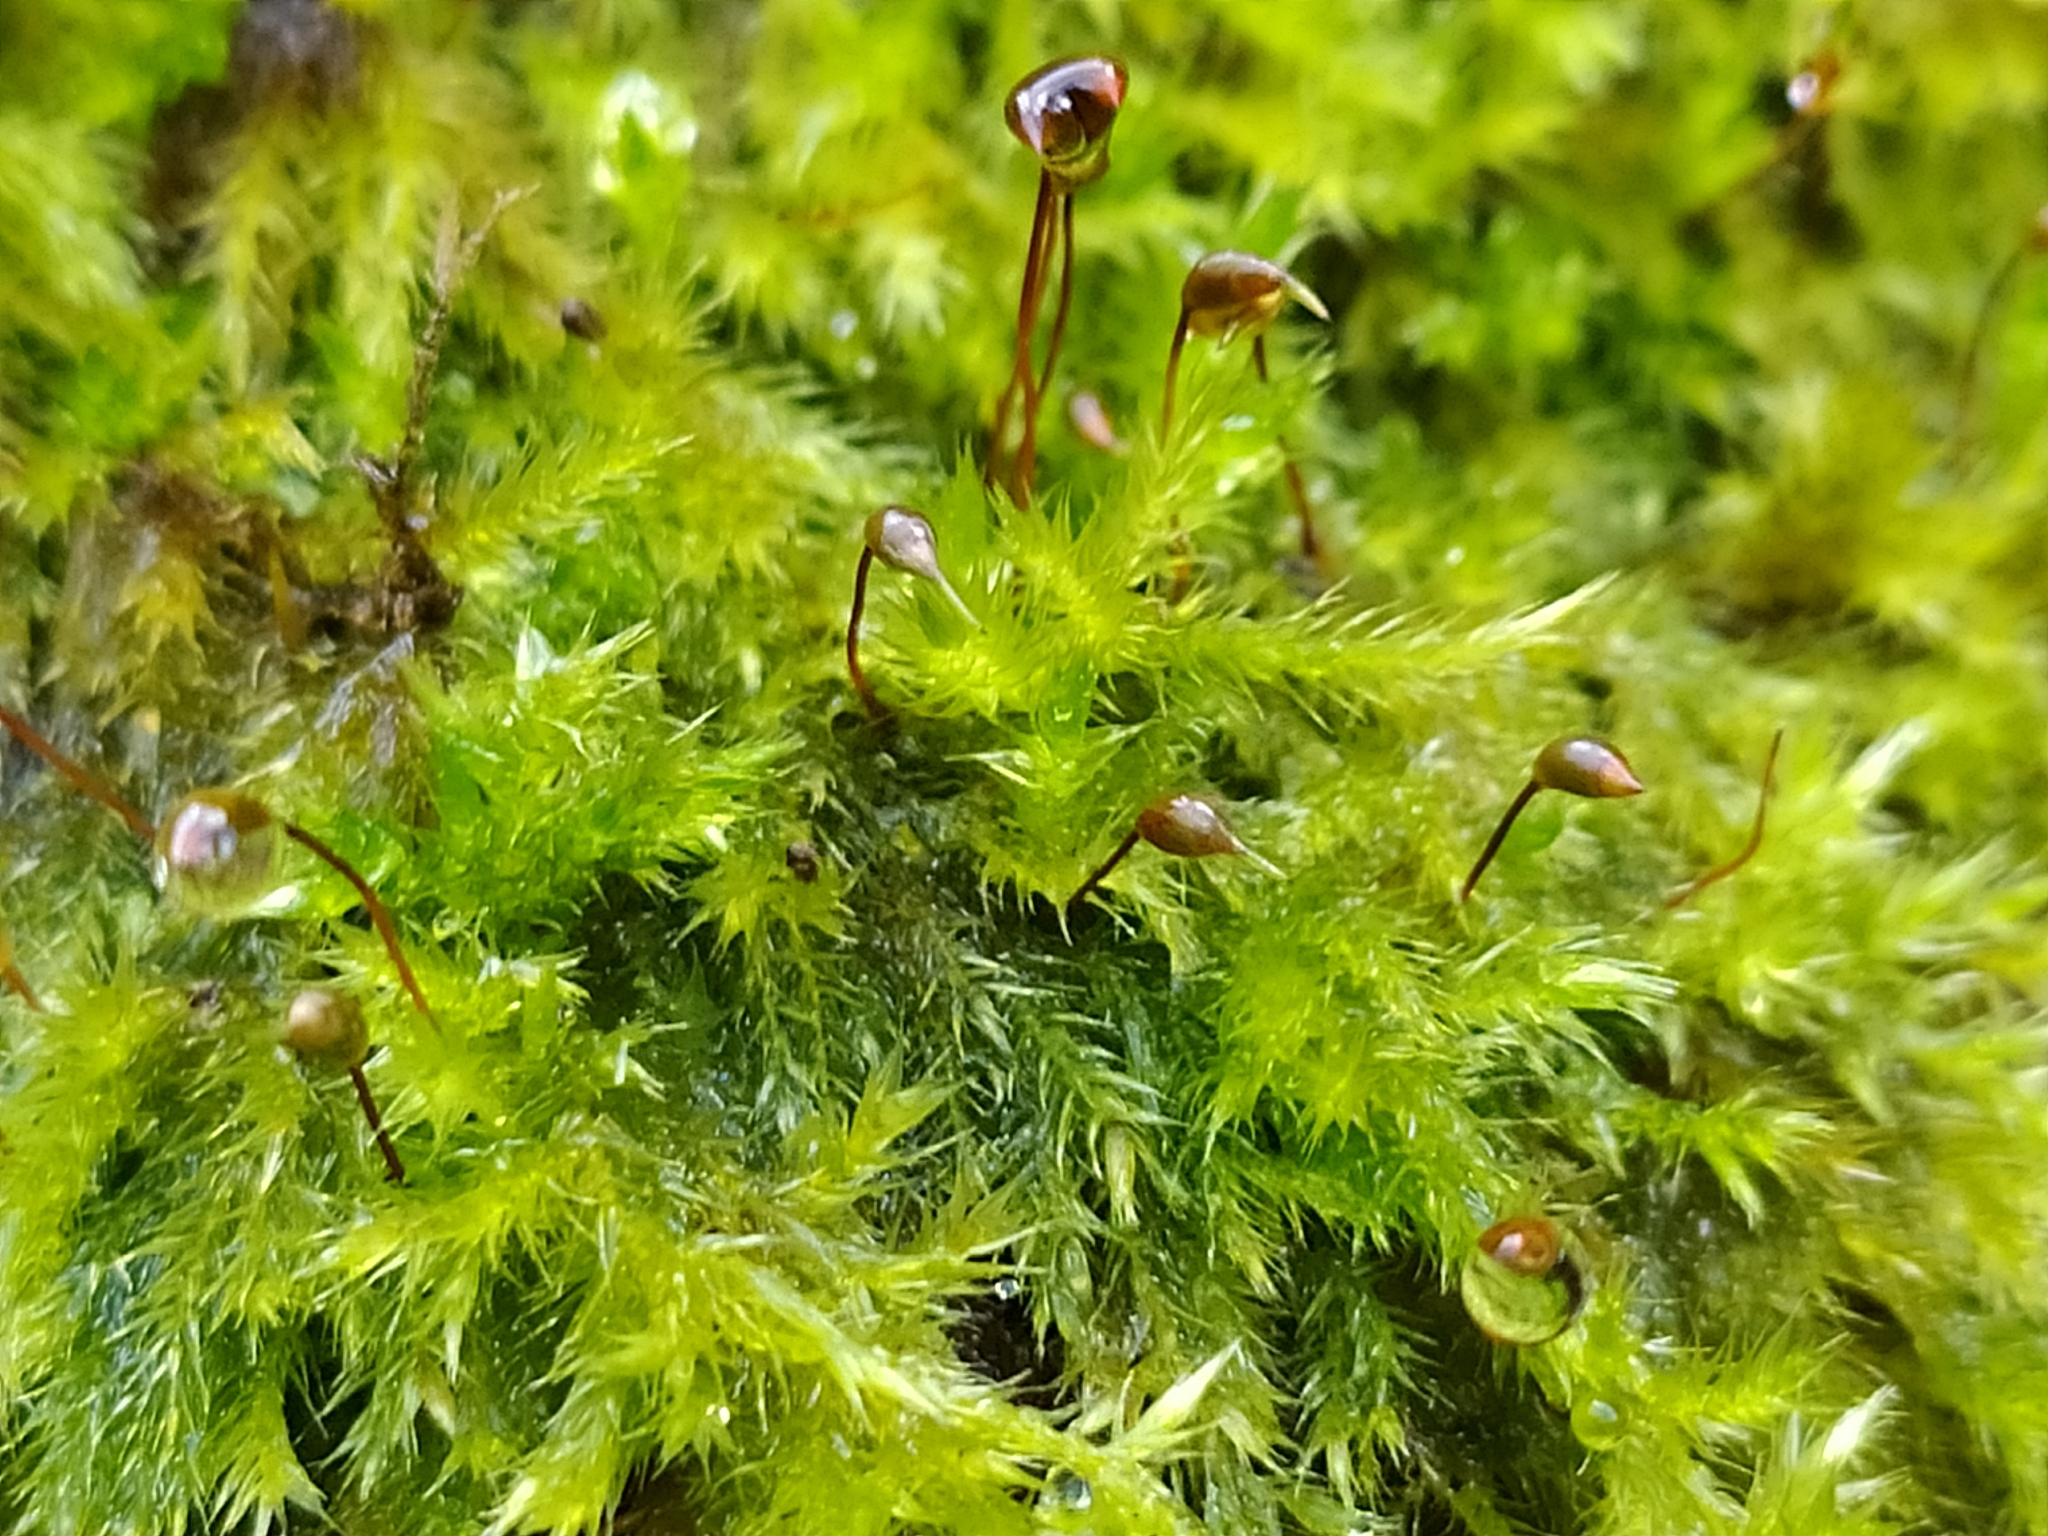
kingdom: Plantae
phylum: Bryophyta
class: Bryopsida
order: Hypnales
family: Brachytheciaceae
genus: Sciuro-hypnum
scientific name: Sciuro-hypnum populeum
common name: Matted feather-moss
